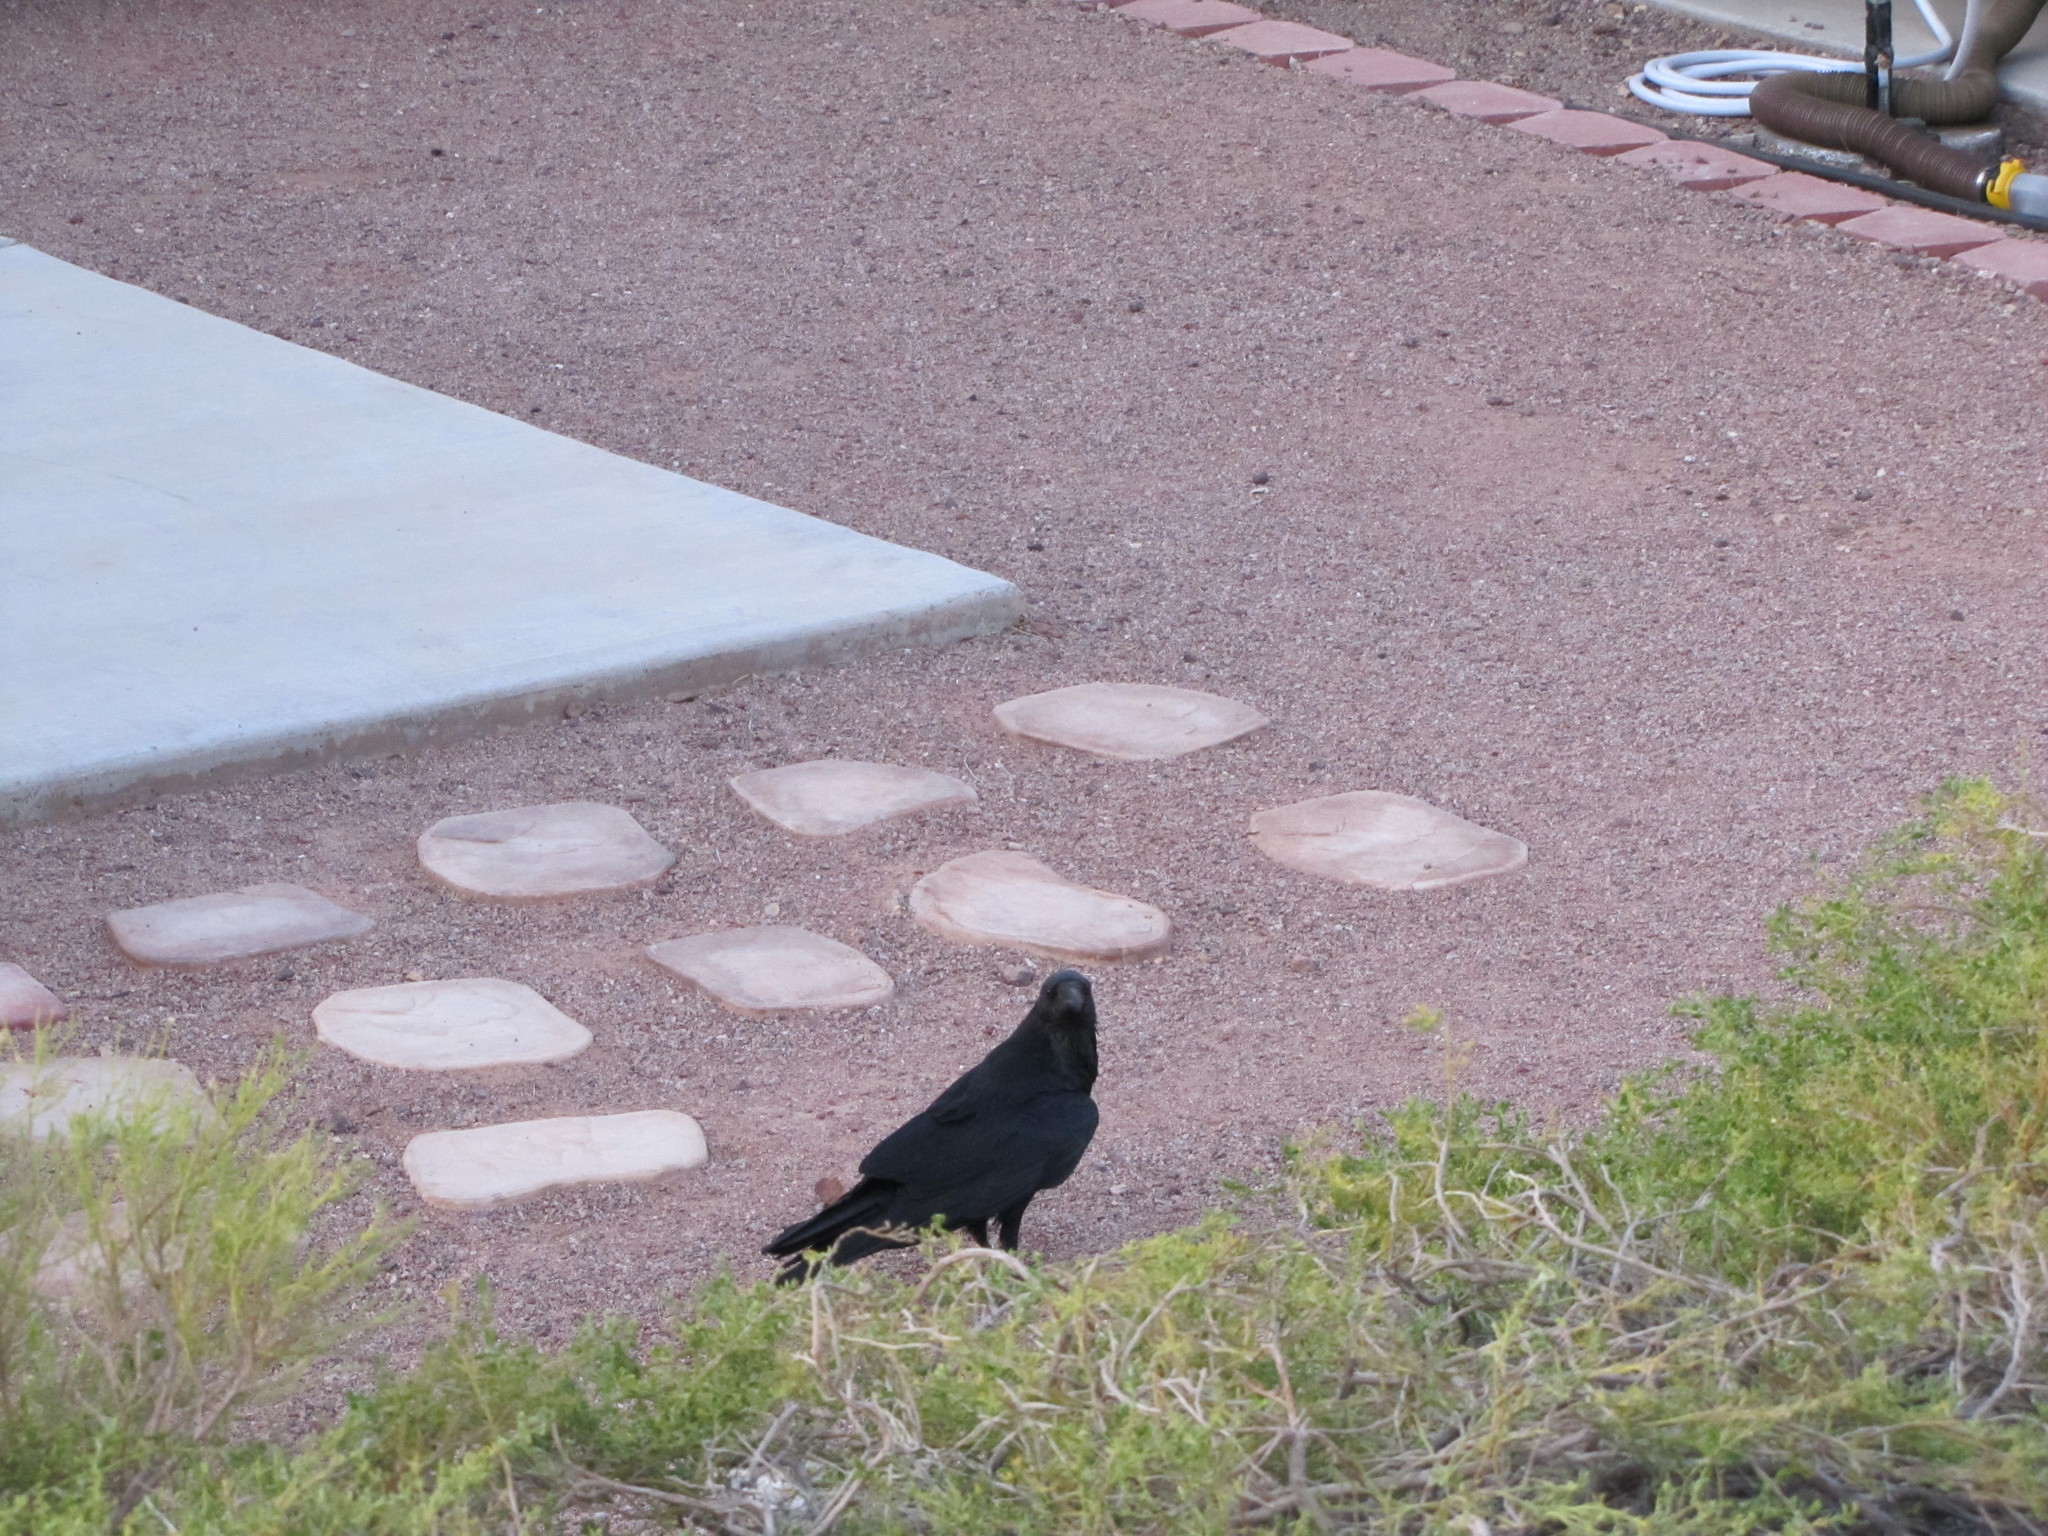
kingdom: Animalia
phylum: Chordata
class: Aves
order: Passeriformes
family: Corvidae
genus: Corvus
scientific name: Corvus corax
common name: Common raven
